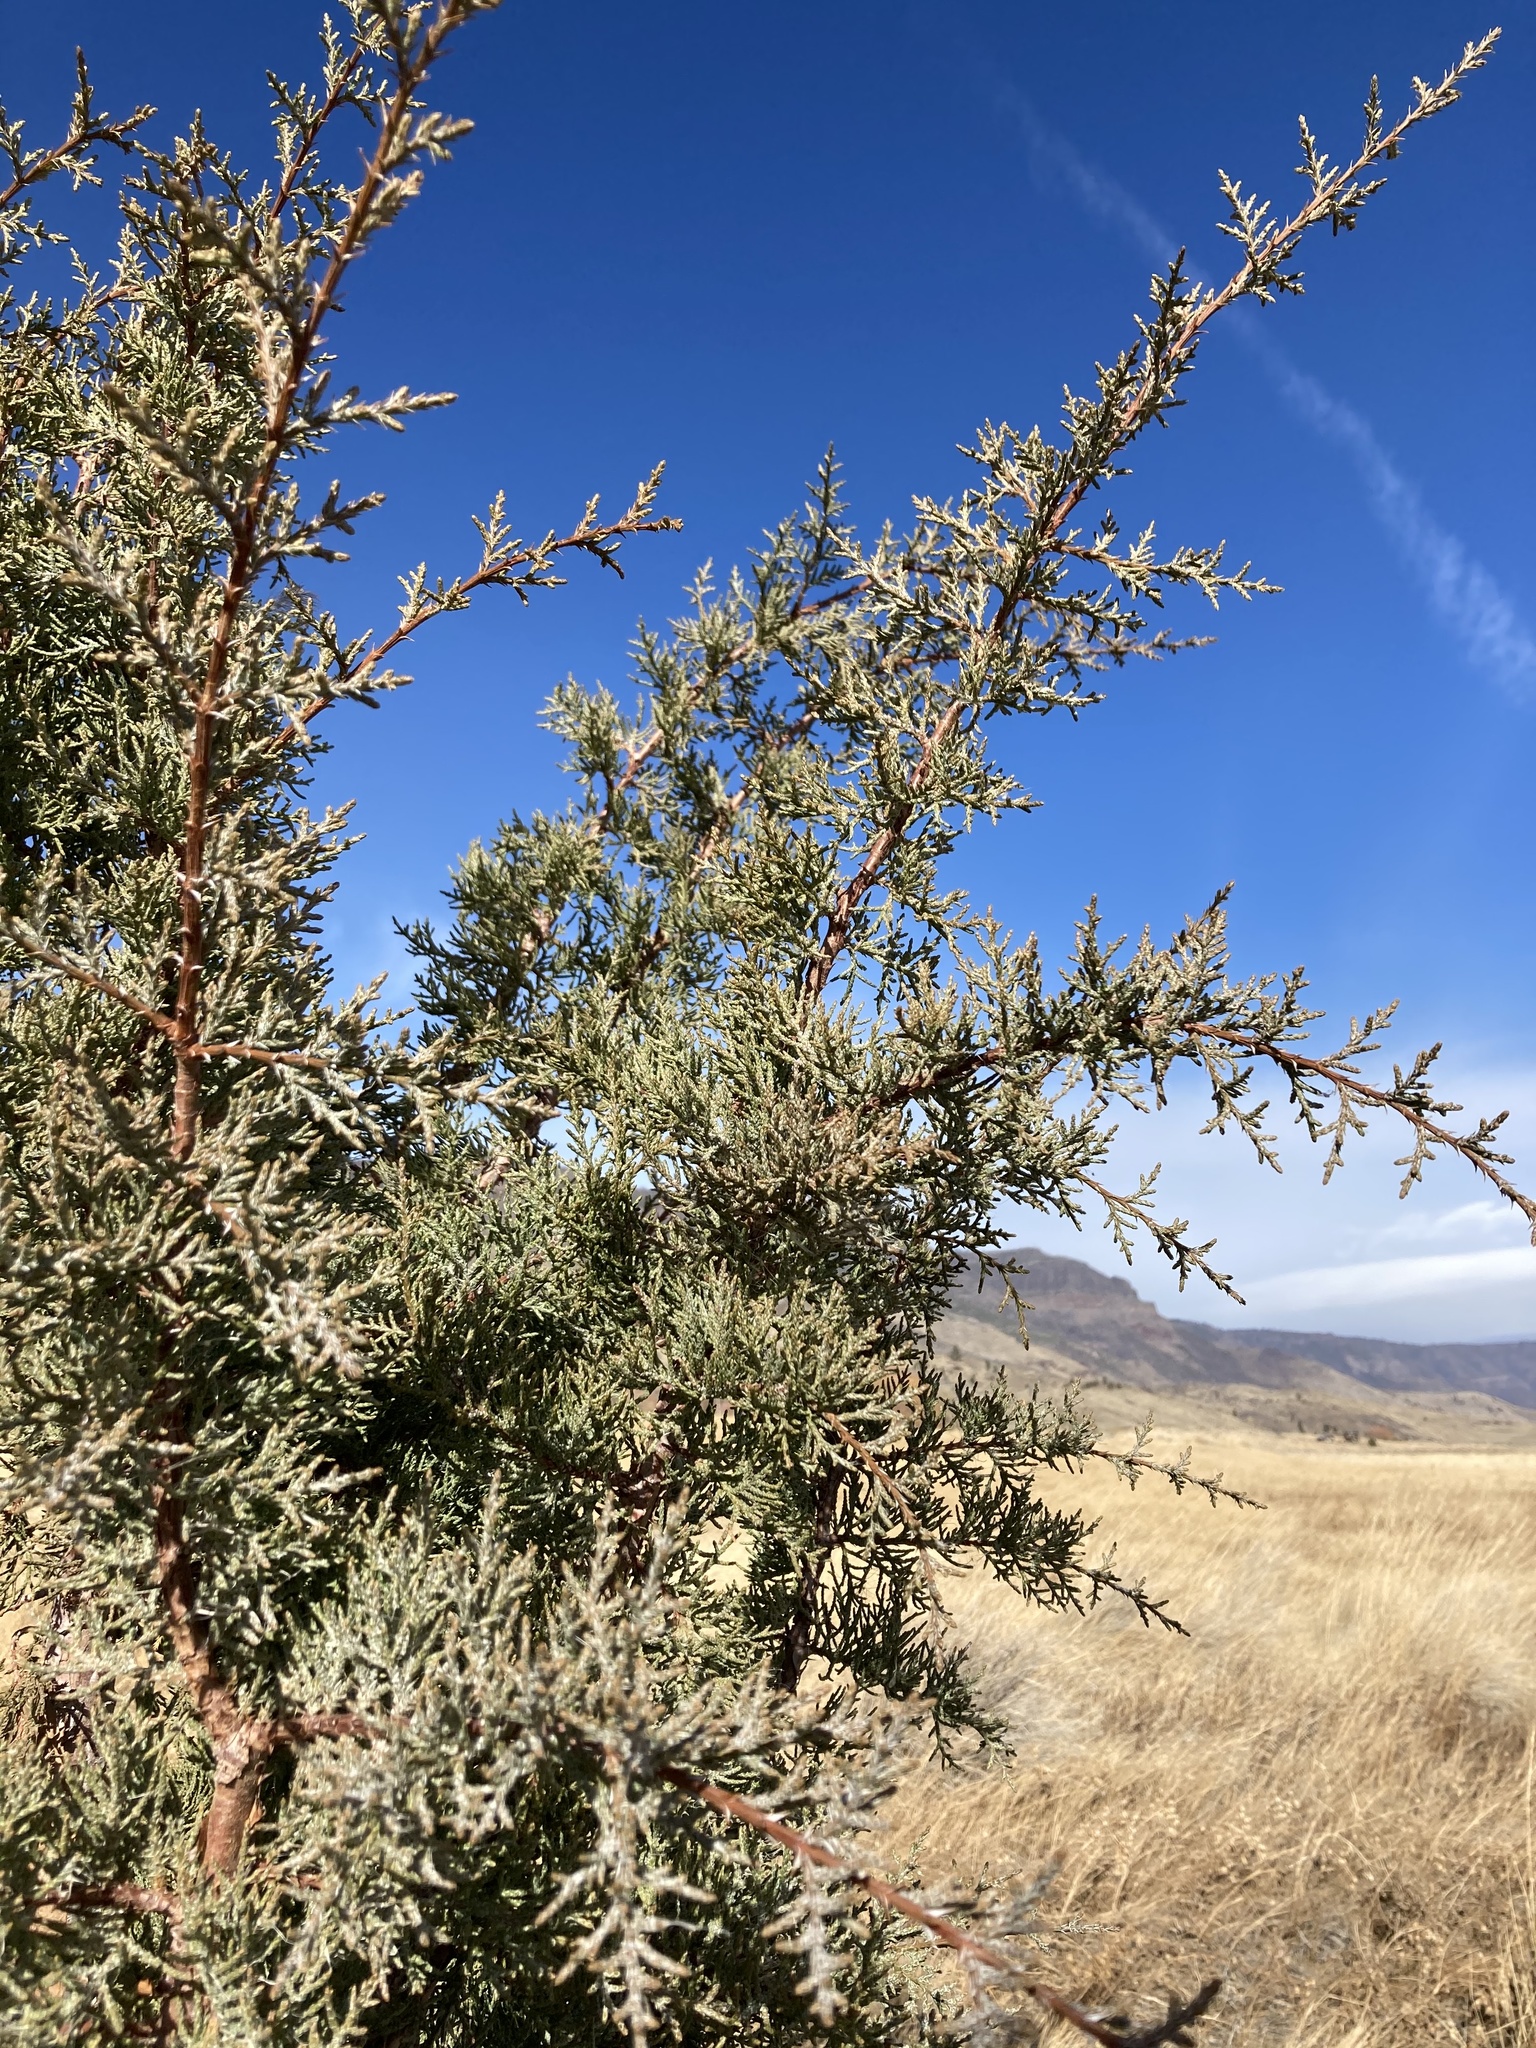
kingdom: Plantae
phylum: Tracheophyta
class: Pinopsida
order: Pinales
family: Cupressaceae
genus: Juniperus
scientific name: Juniperus occidentalis
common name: Western juniper
